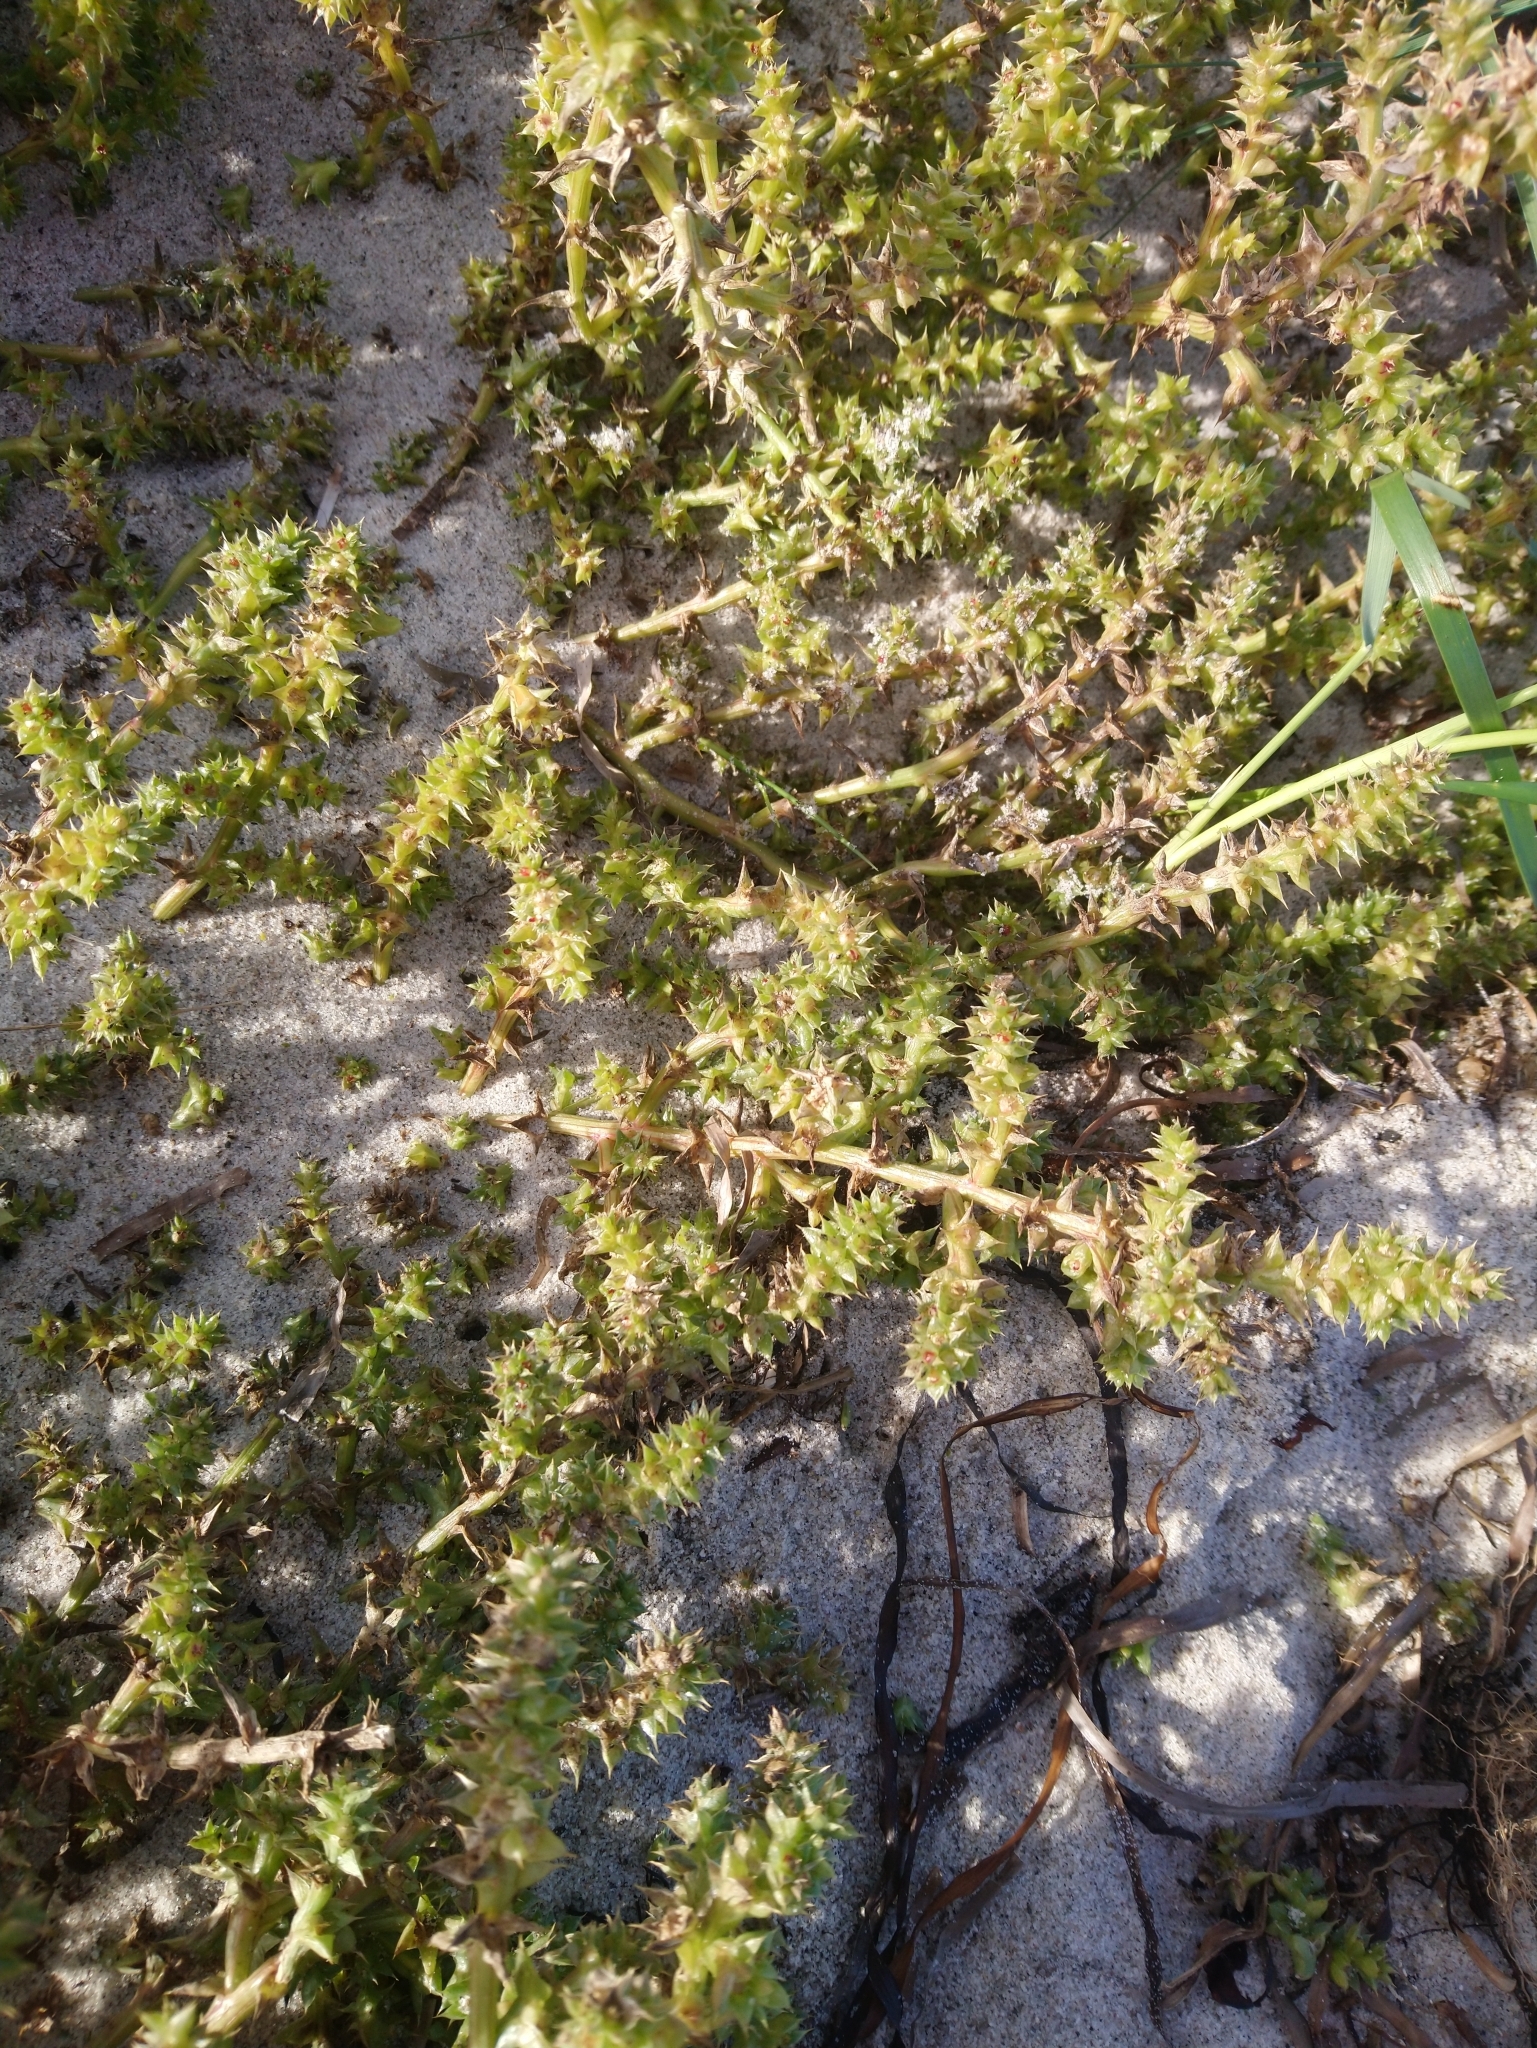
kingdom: Plantae
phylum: Tracheophyta
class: Magnoliopsida
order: Caryophyllales
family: Amaranthaceae
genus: Salsola
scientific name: Salsola kali
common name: Saltwort
